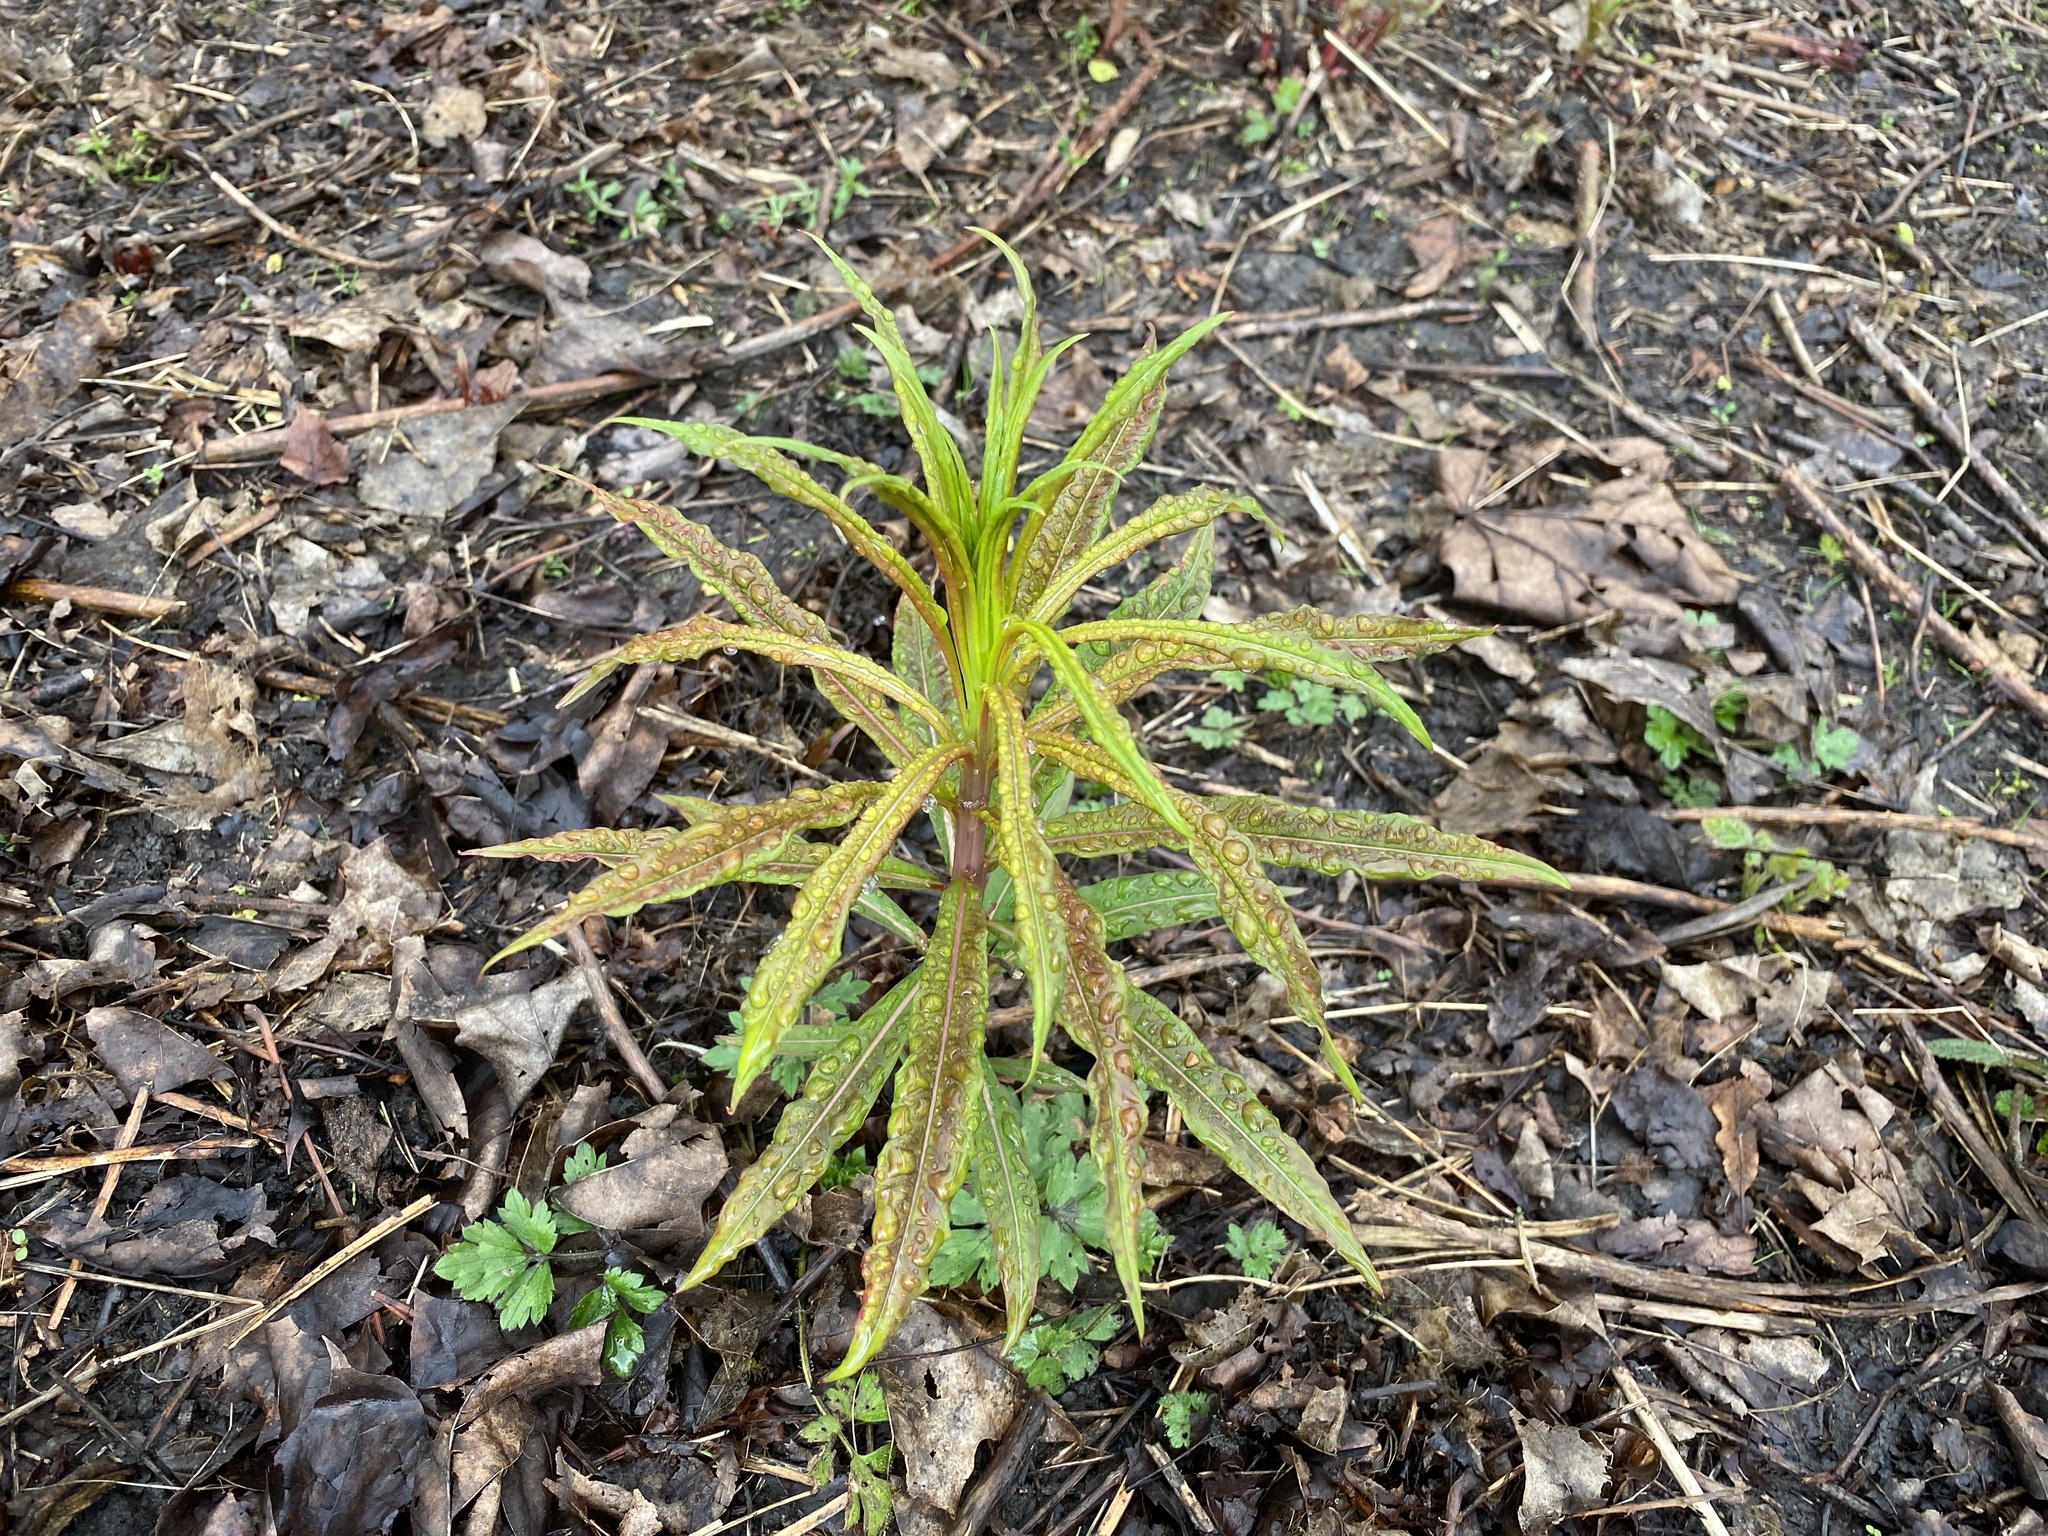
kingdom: Plantae
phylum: Tracheophyta
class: Magnoliopsida
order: Myrtales
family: Onagraceae
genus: Chamaenerion
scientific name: Chamaenerion angustifolium
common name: Fireweed
